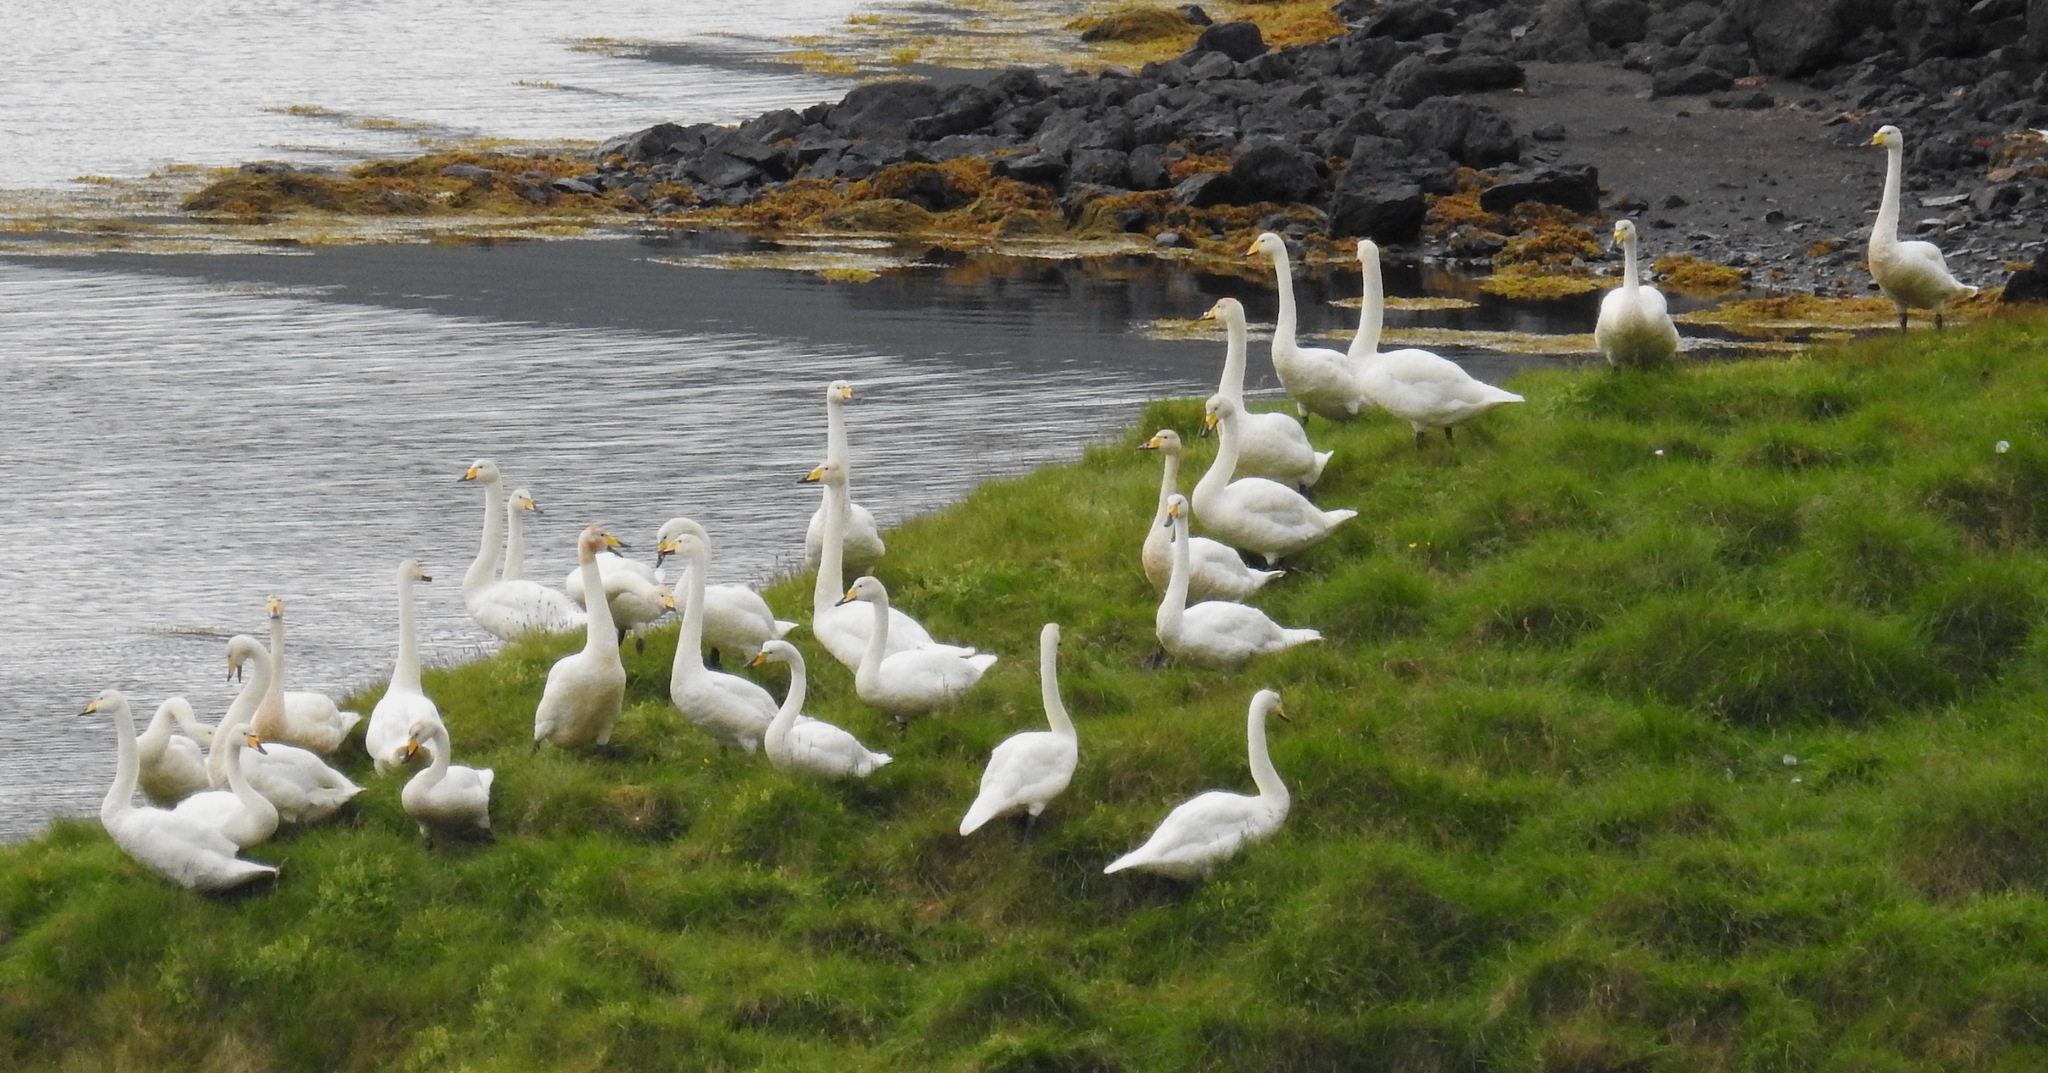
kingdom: Animalia
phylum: Chordata
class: Aves
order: Anseriformes
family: Anatidae
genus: Cygnus
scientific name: Cygnus cygnus
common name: Whooper swan
